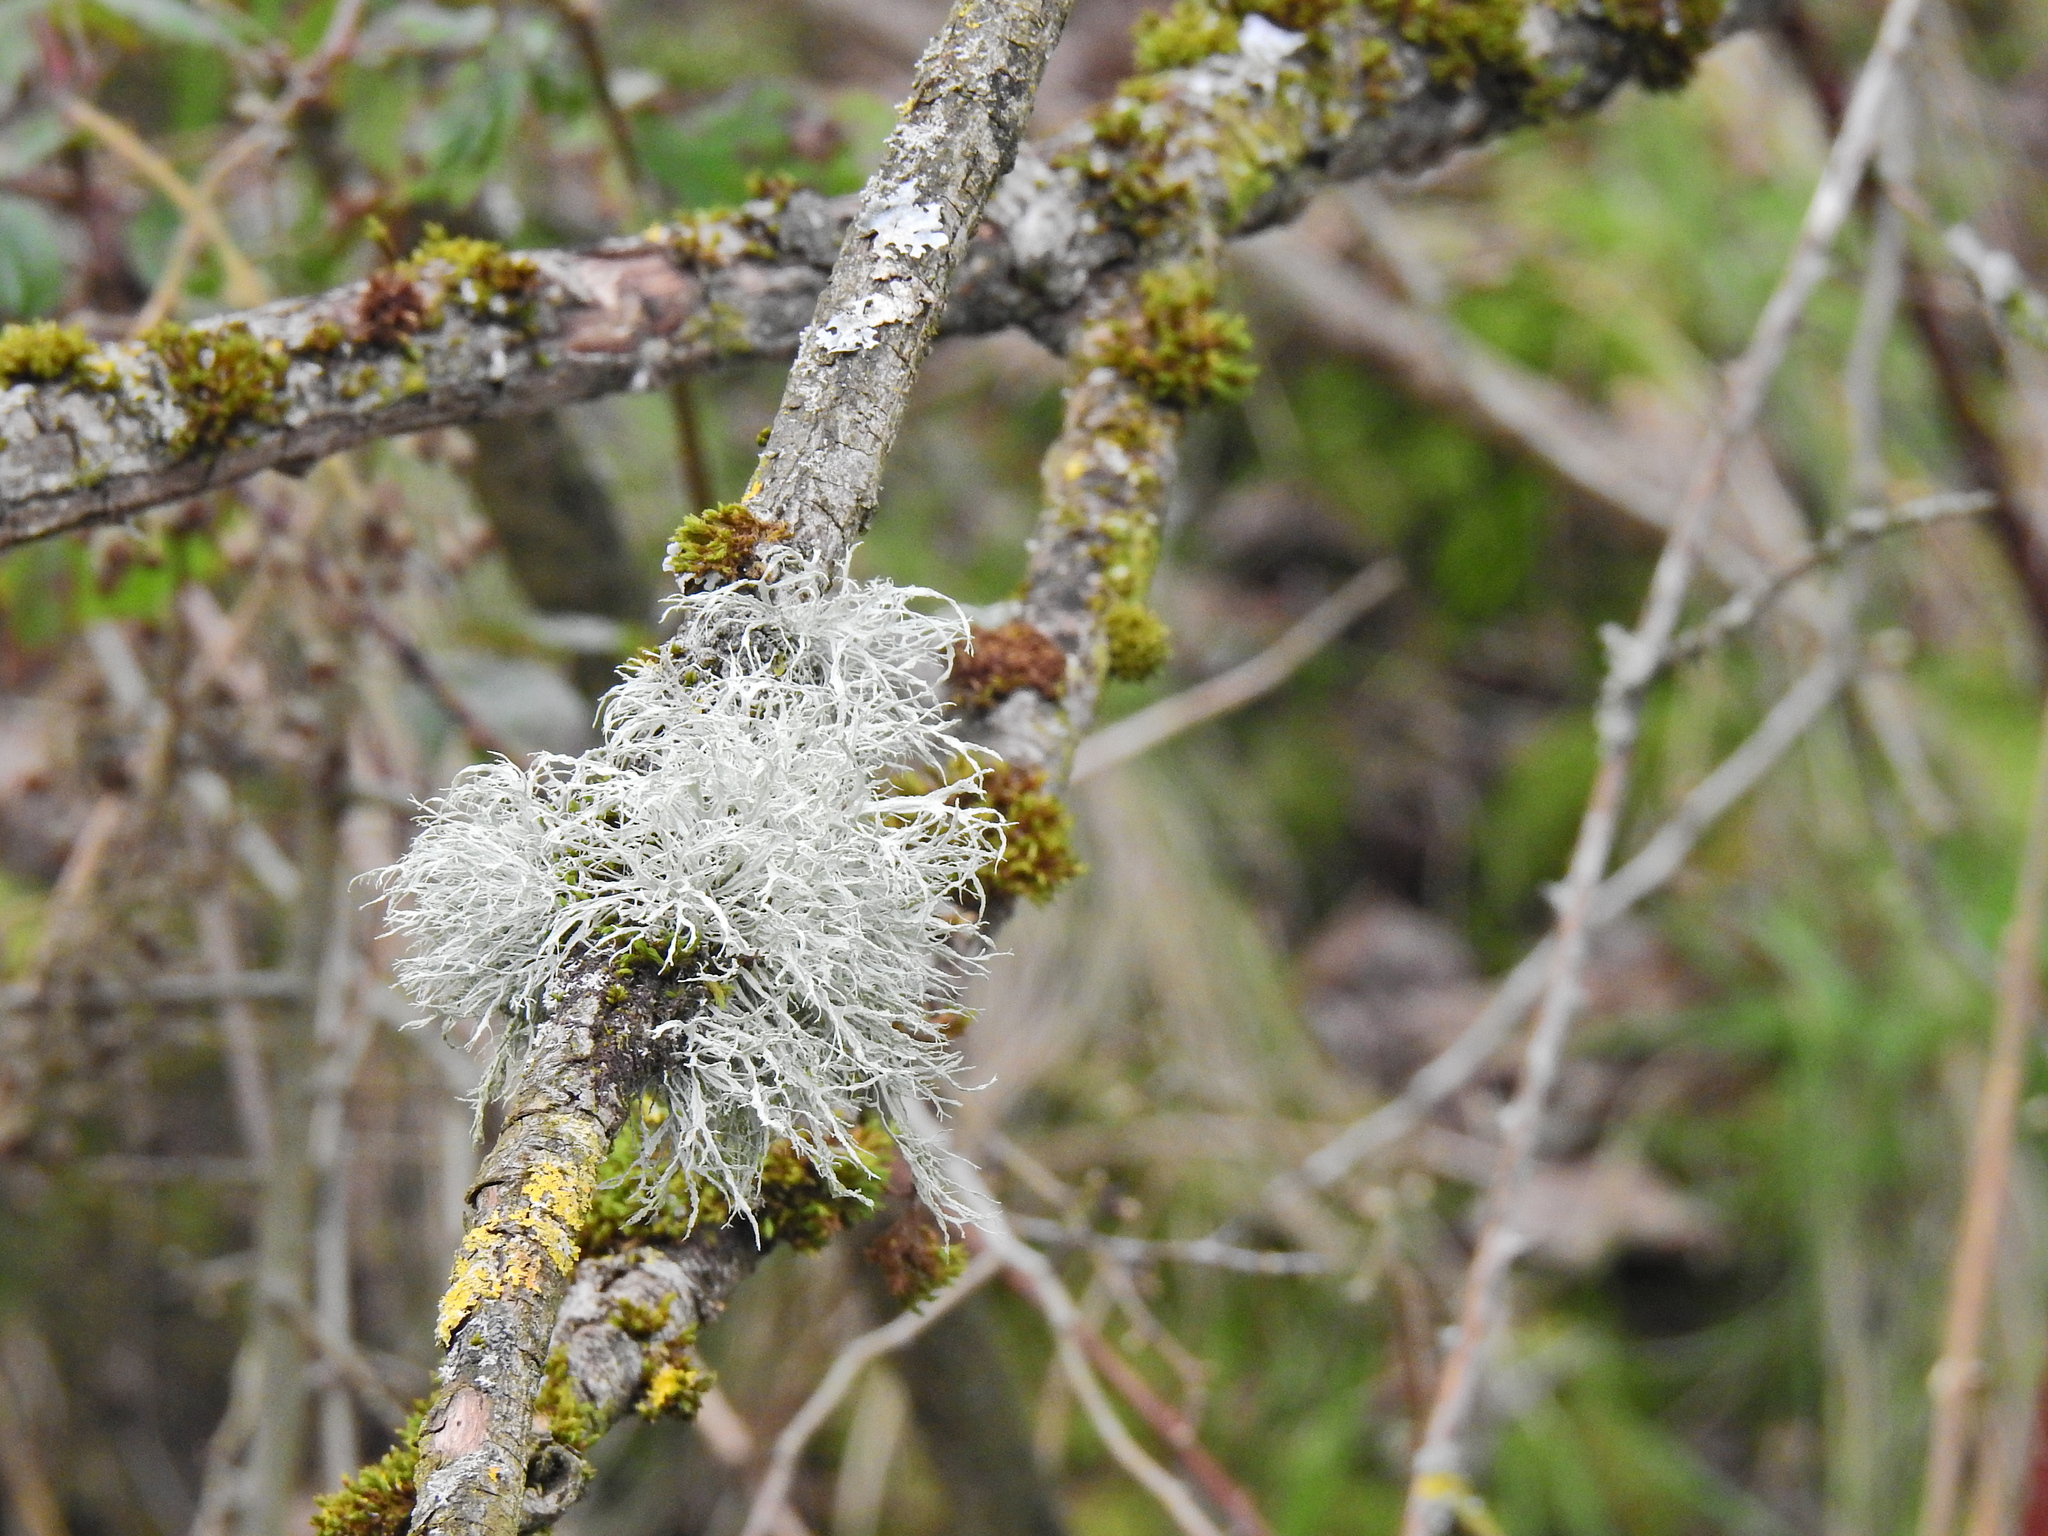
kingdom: Fungi
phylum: Ascomycota
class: Lecanoromycetes
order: Lecanorales
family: Ramalinaceae
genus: Ramalina
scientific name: Ramalina farinacea
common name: Farinose cartilage lichen
